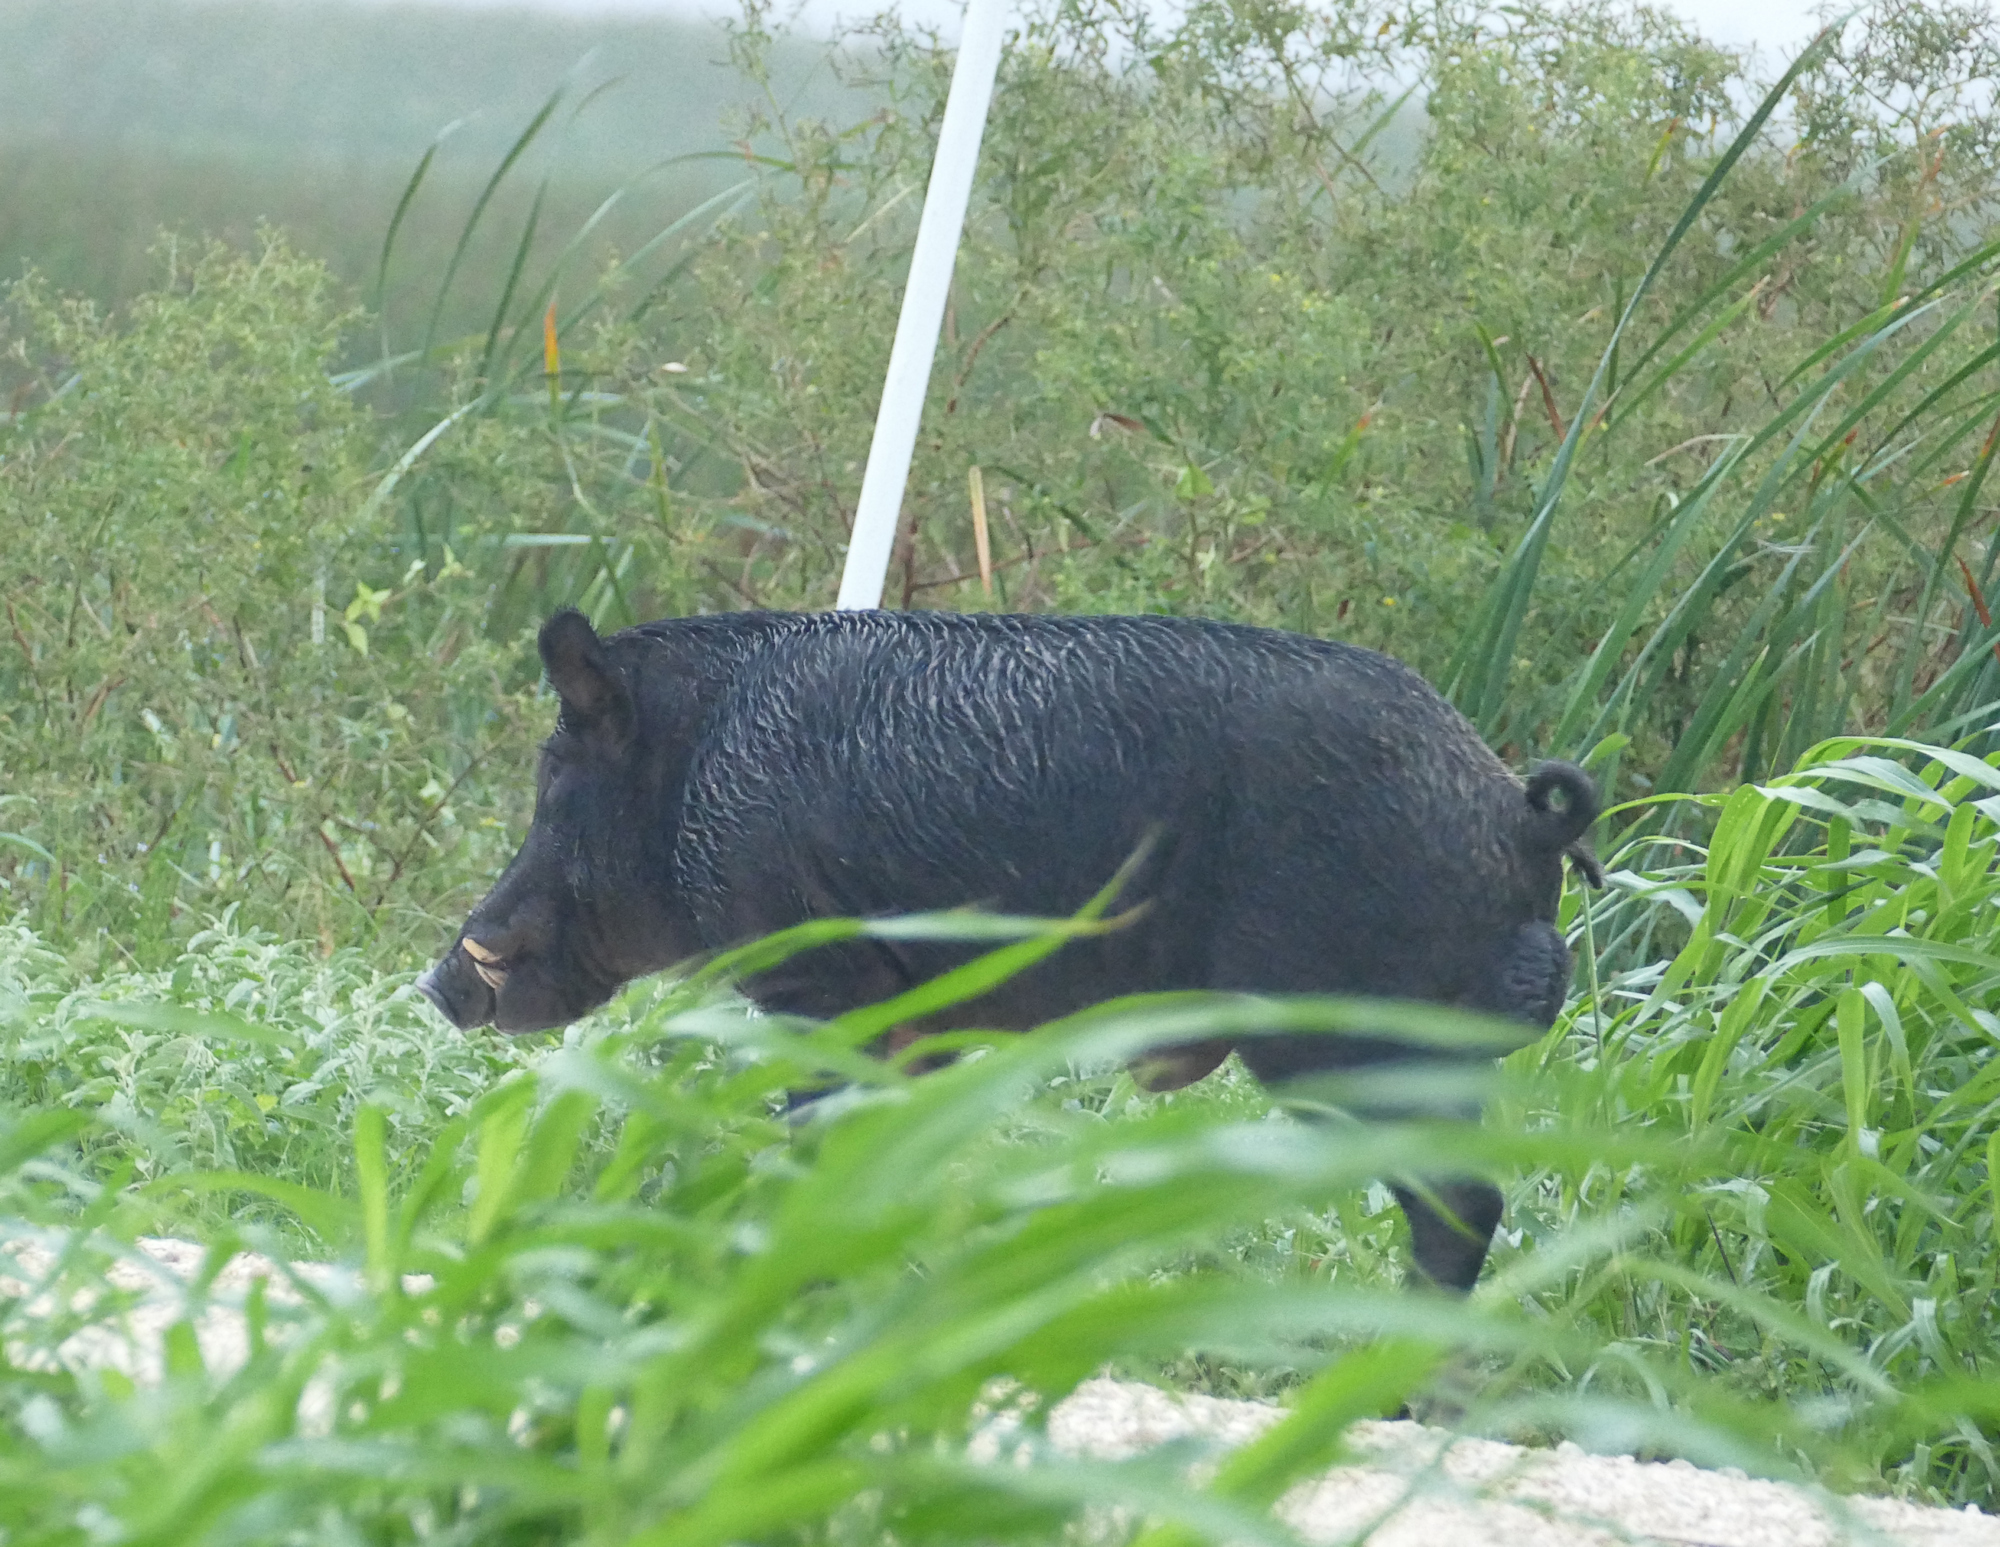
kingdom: Animalia
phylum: Chordata
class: Mammalia
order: Artiodactyla
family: Suidae
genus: Sus
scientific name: Sus scrofa
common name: Wild boar
